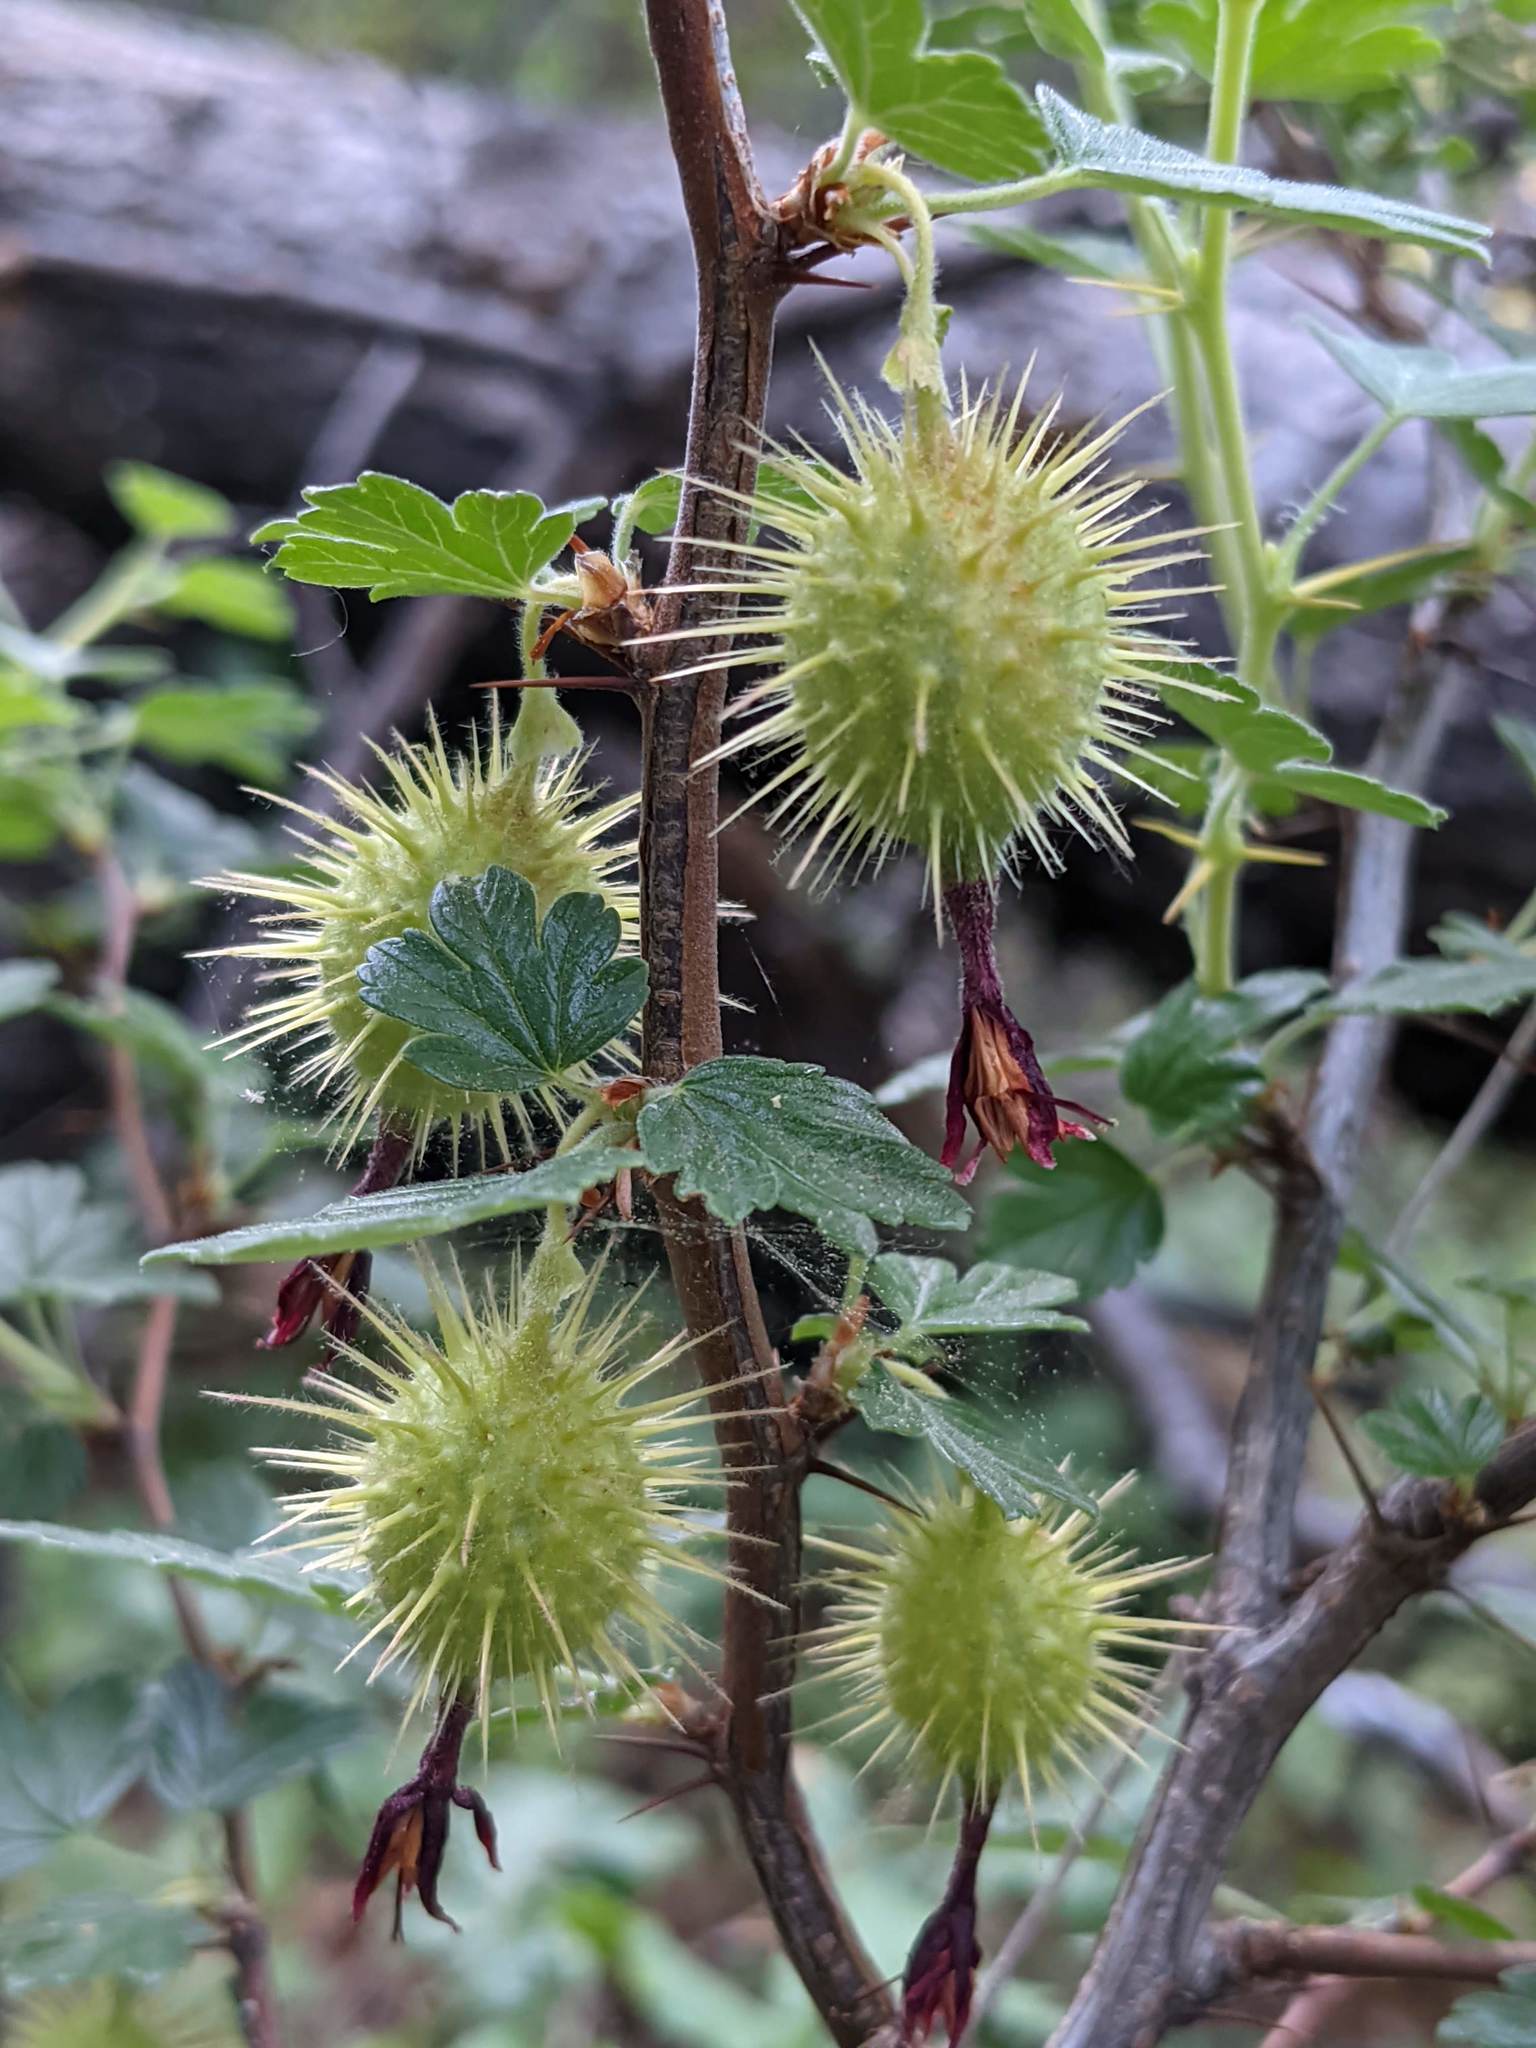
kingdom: Plantae
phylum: Tracheophyta
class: Magnoliopsida
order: Saxifragales
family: Grossulariaceae
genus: Ribes
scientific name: Ribes roezlii
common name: Sierra gooseberry
